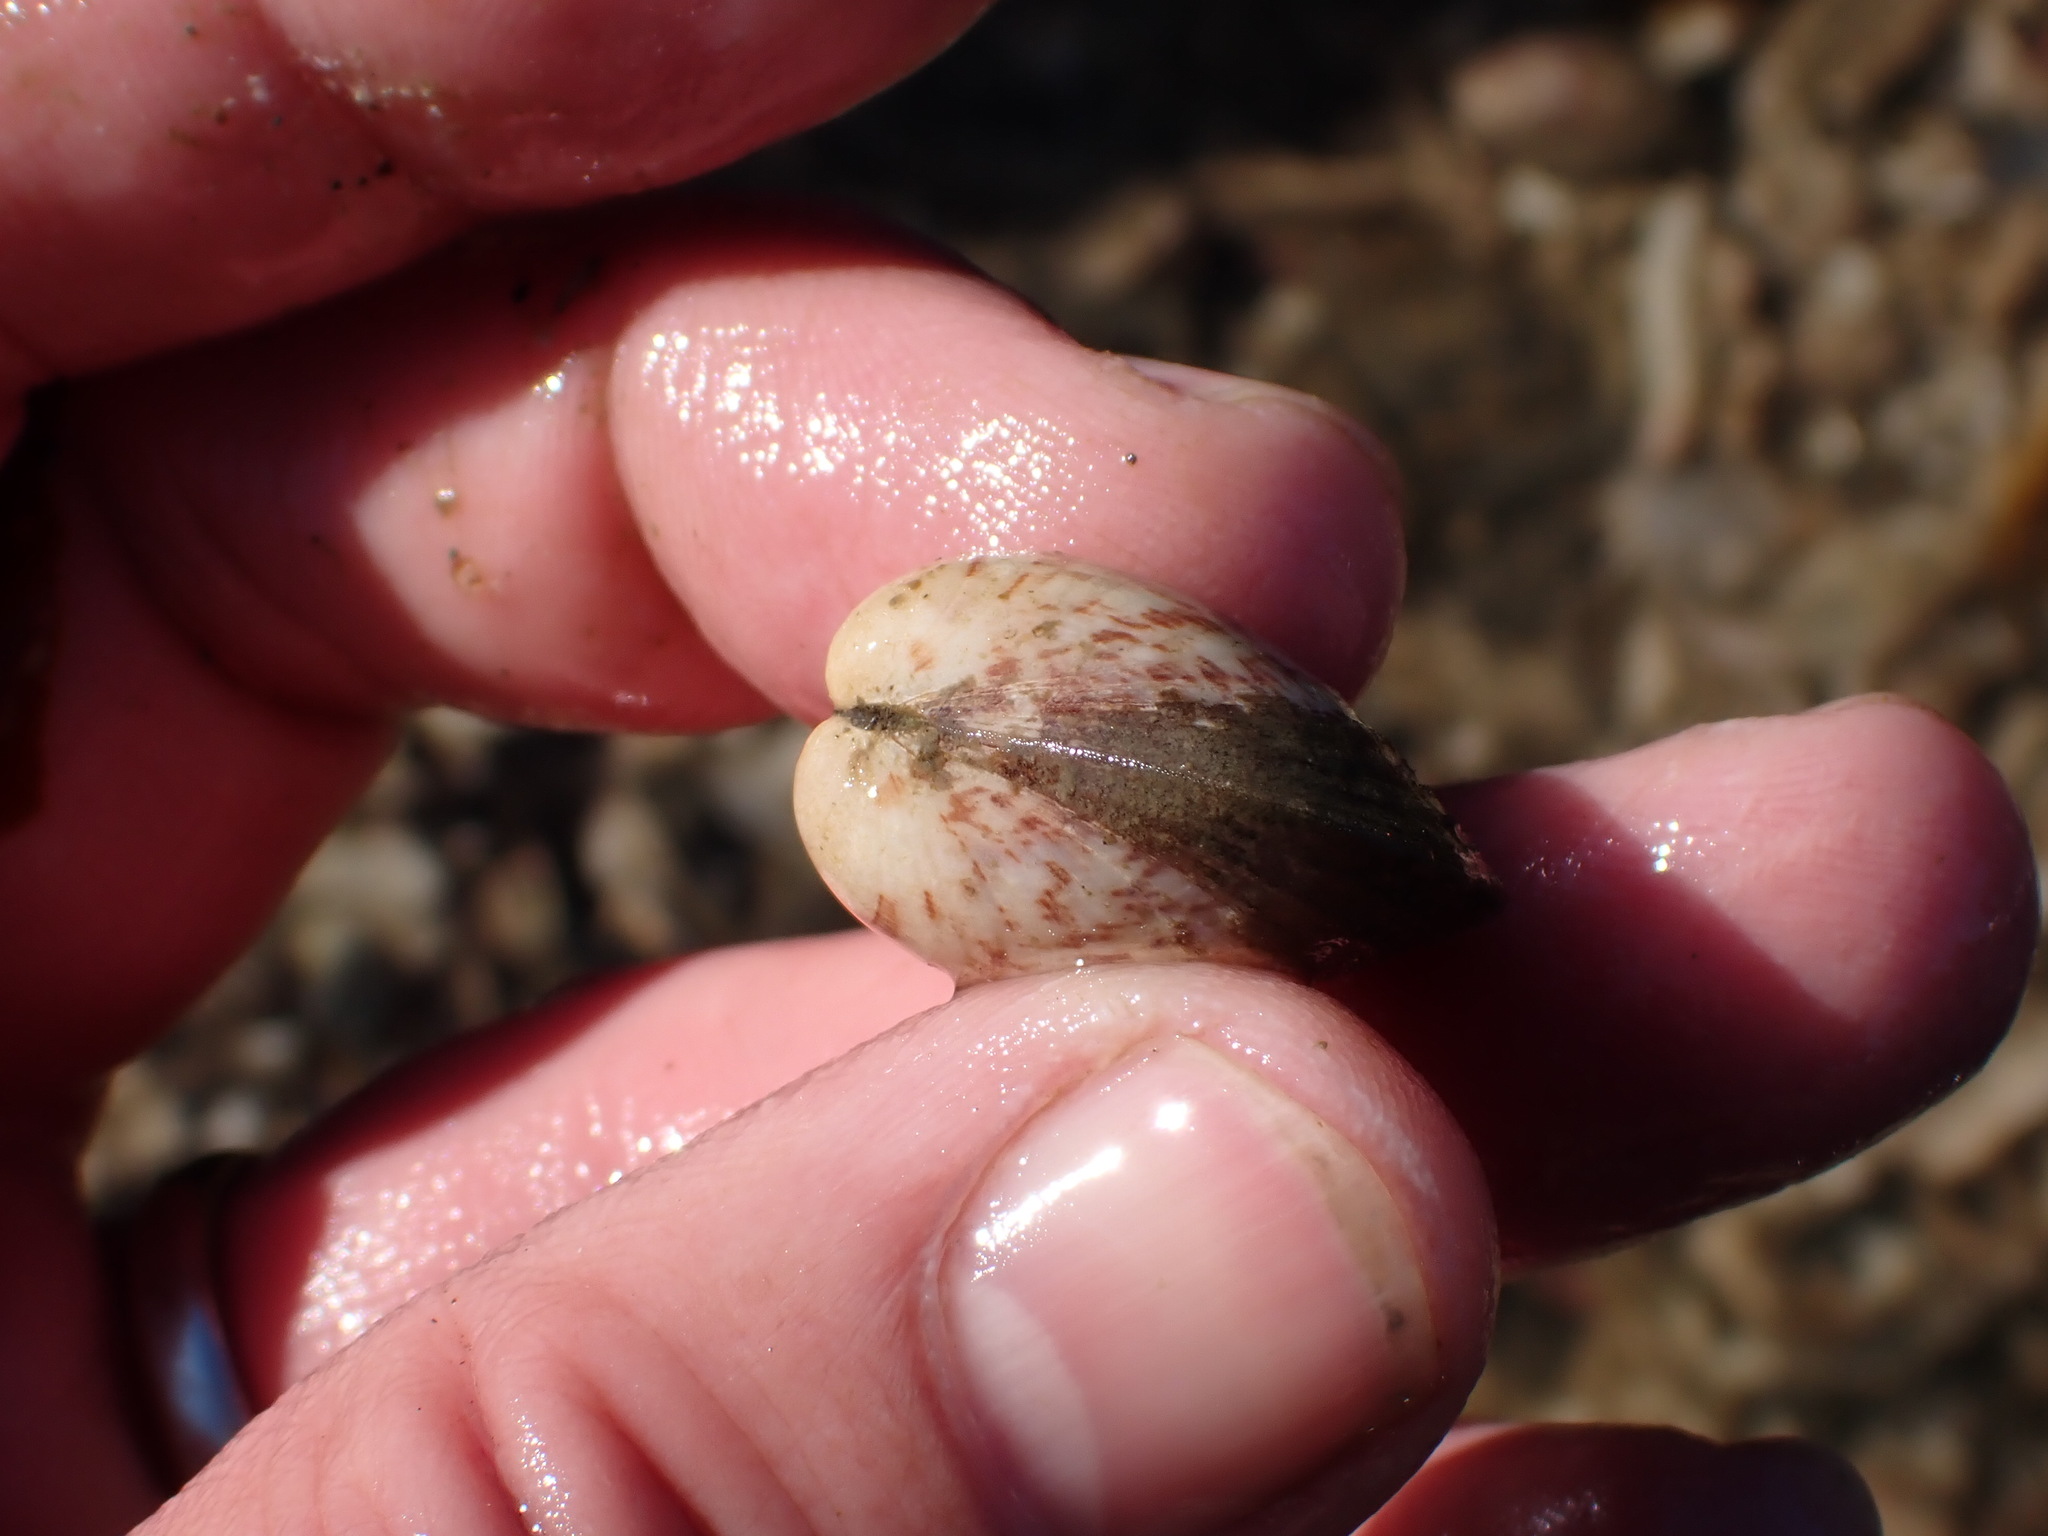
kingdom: Animalia
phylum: Mollusca
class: Bivalvia
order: Arcida
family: Glycymerididae
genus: Glycymeris
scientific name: Glycymeris septentrionalis
